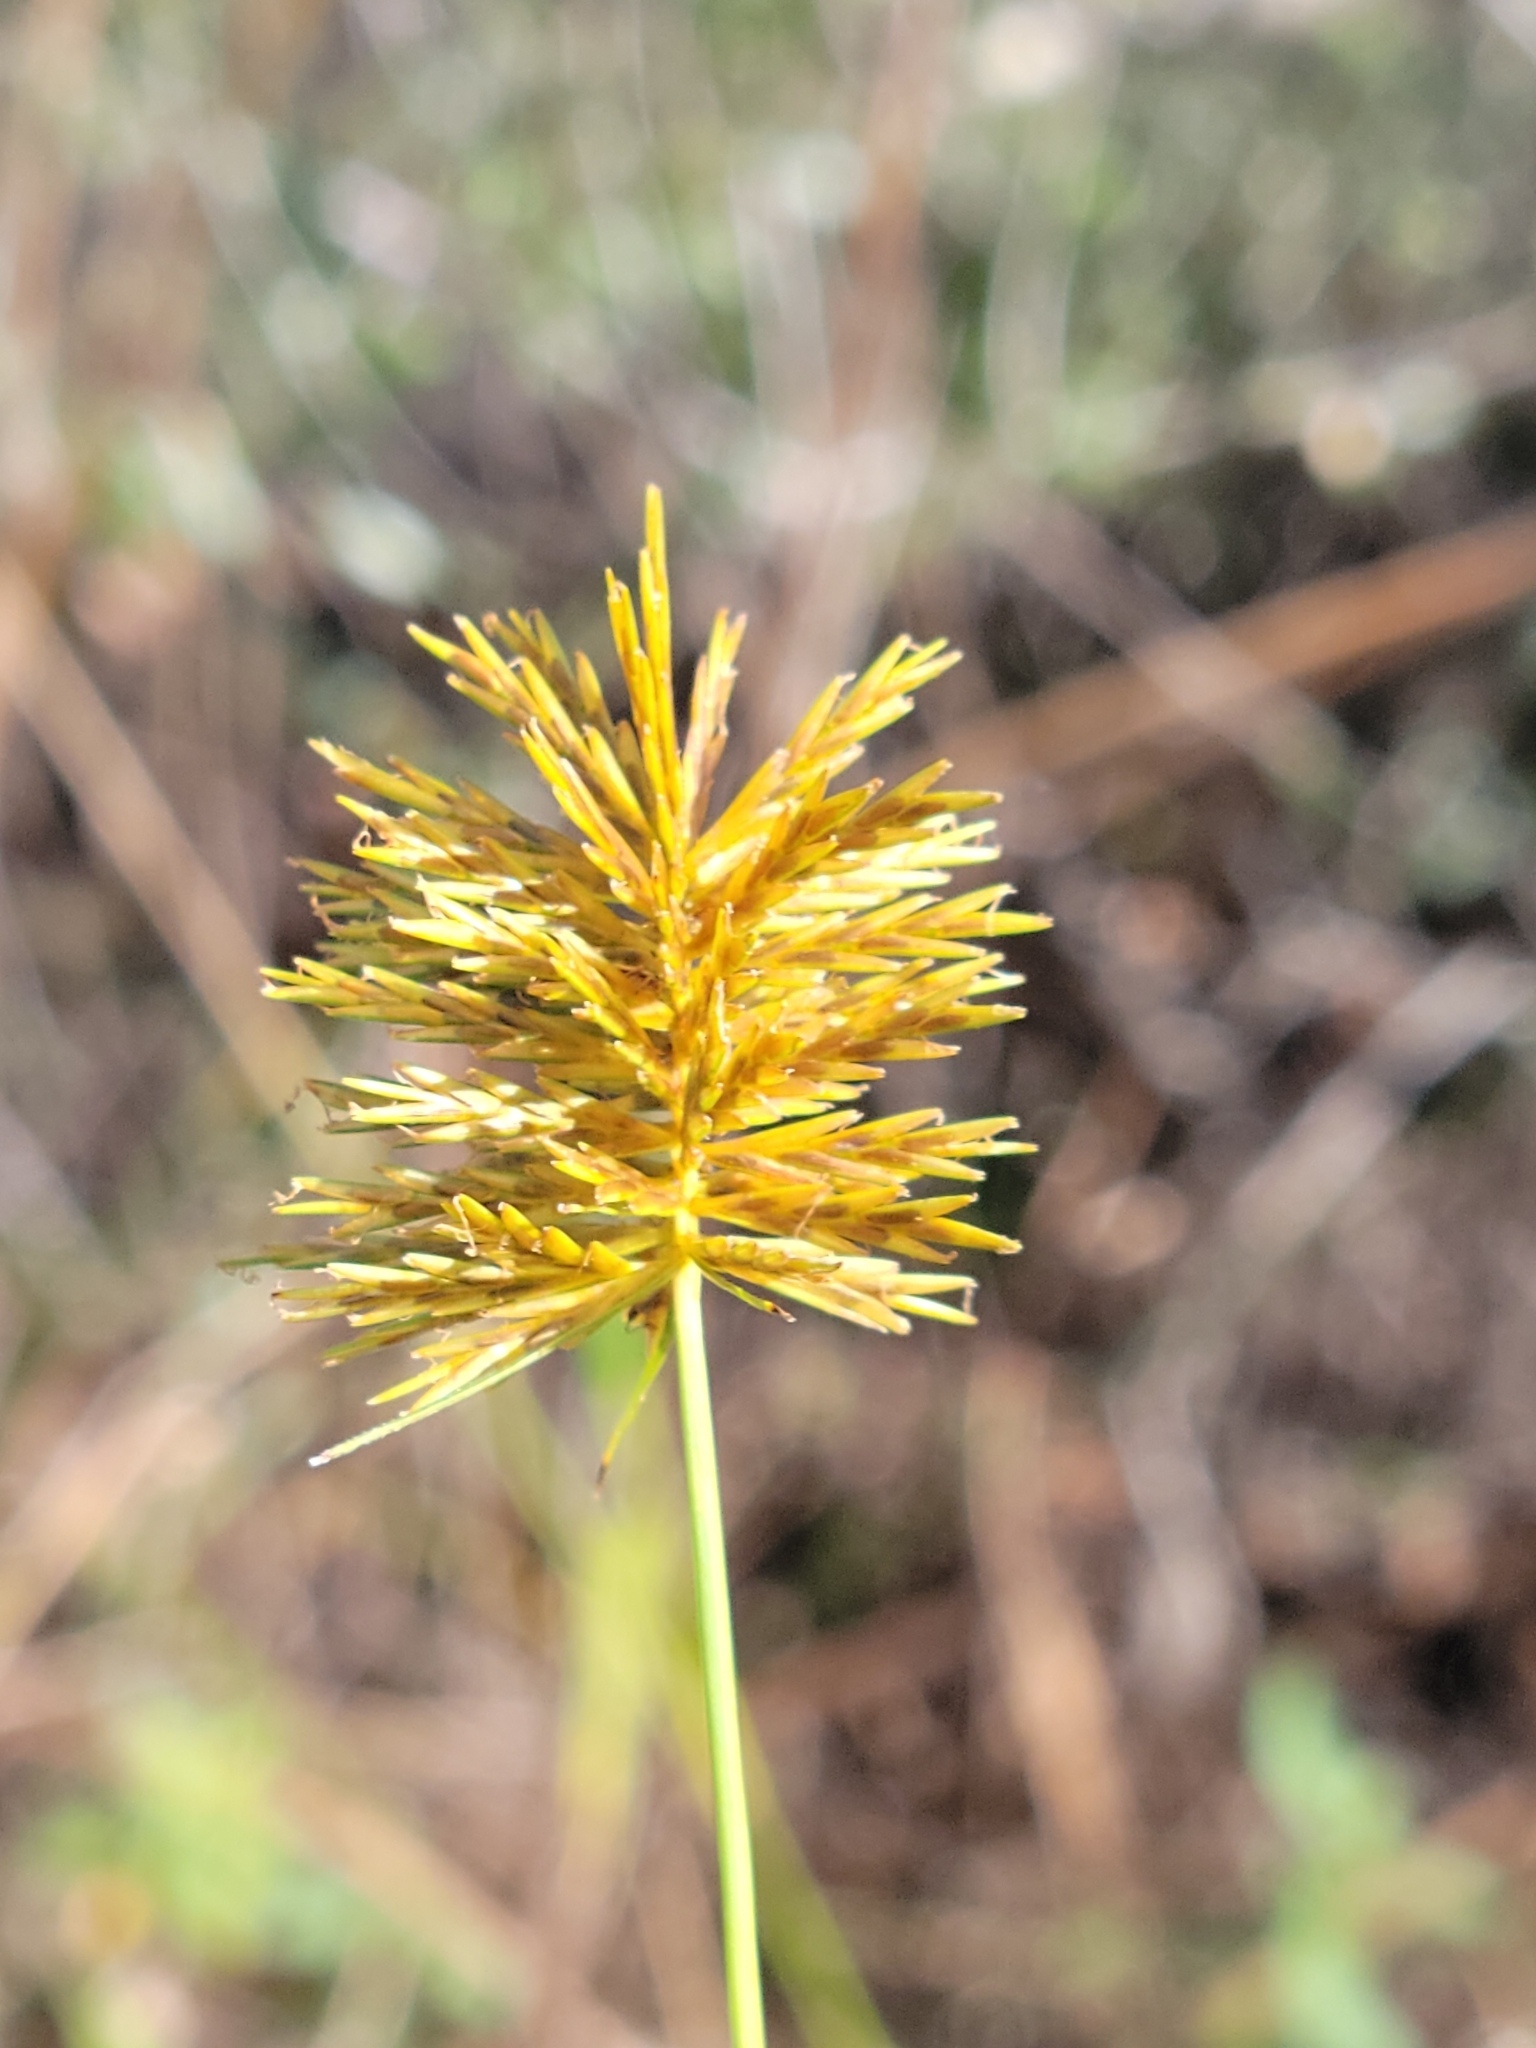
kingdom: Plantae
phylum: Tracheophyta
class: Liliopsida
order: Poales
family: Cyperaceae
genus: Cyperus
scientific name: Cyperus strigosus
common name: False nutsedge
